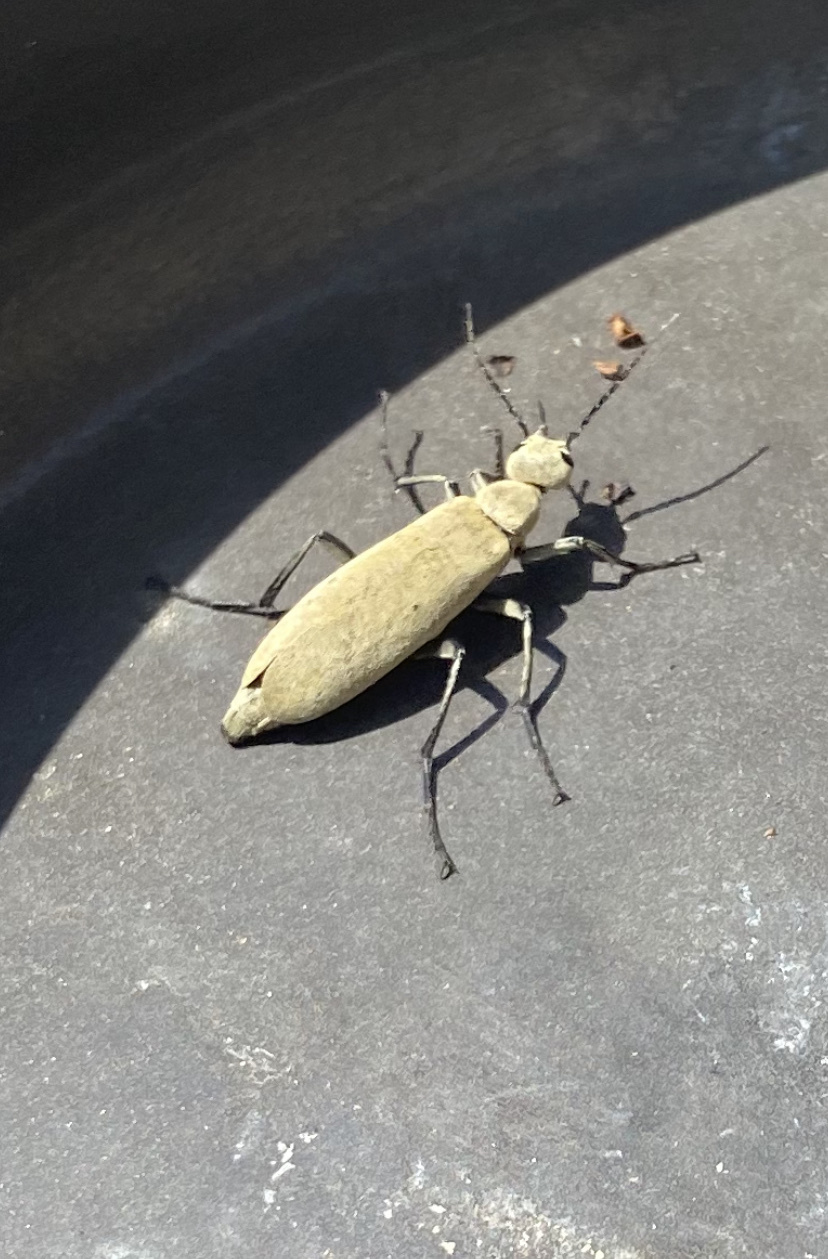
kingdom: Animalia
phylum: Arthropoda
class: Insecta
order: Coleoptera
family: Meloidae
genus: Epicauta
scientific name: Epicauta immaculata
